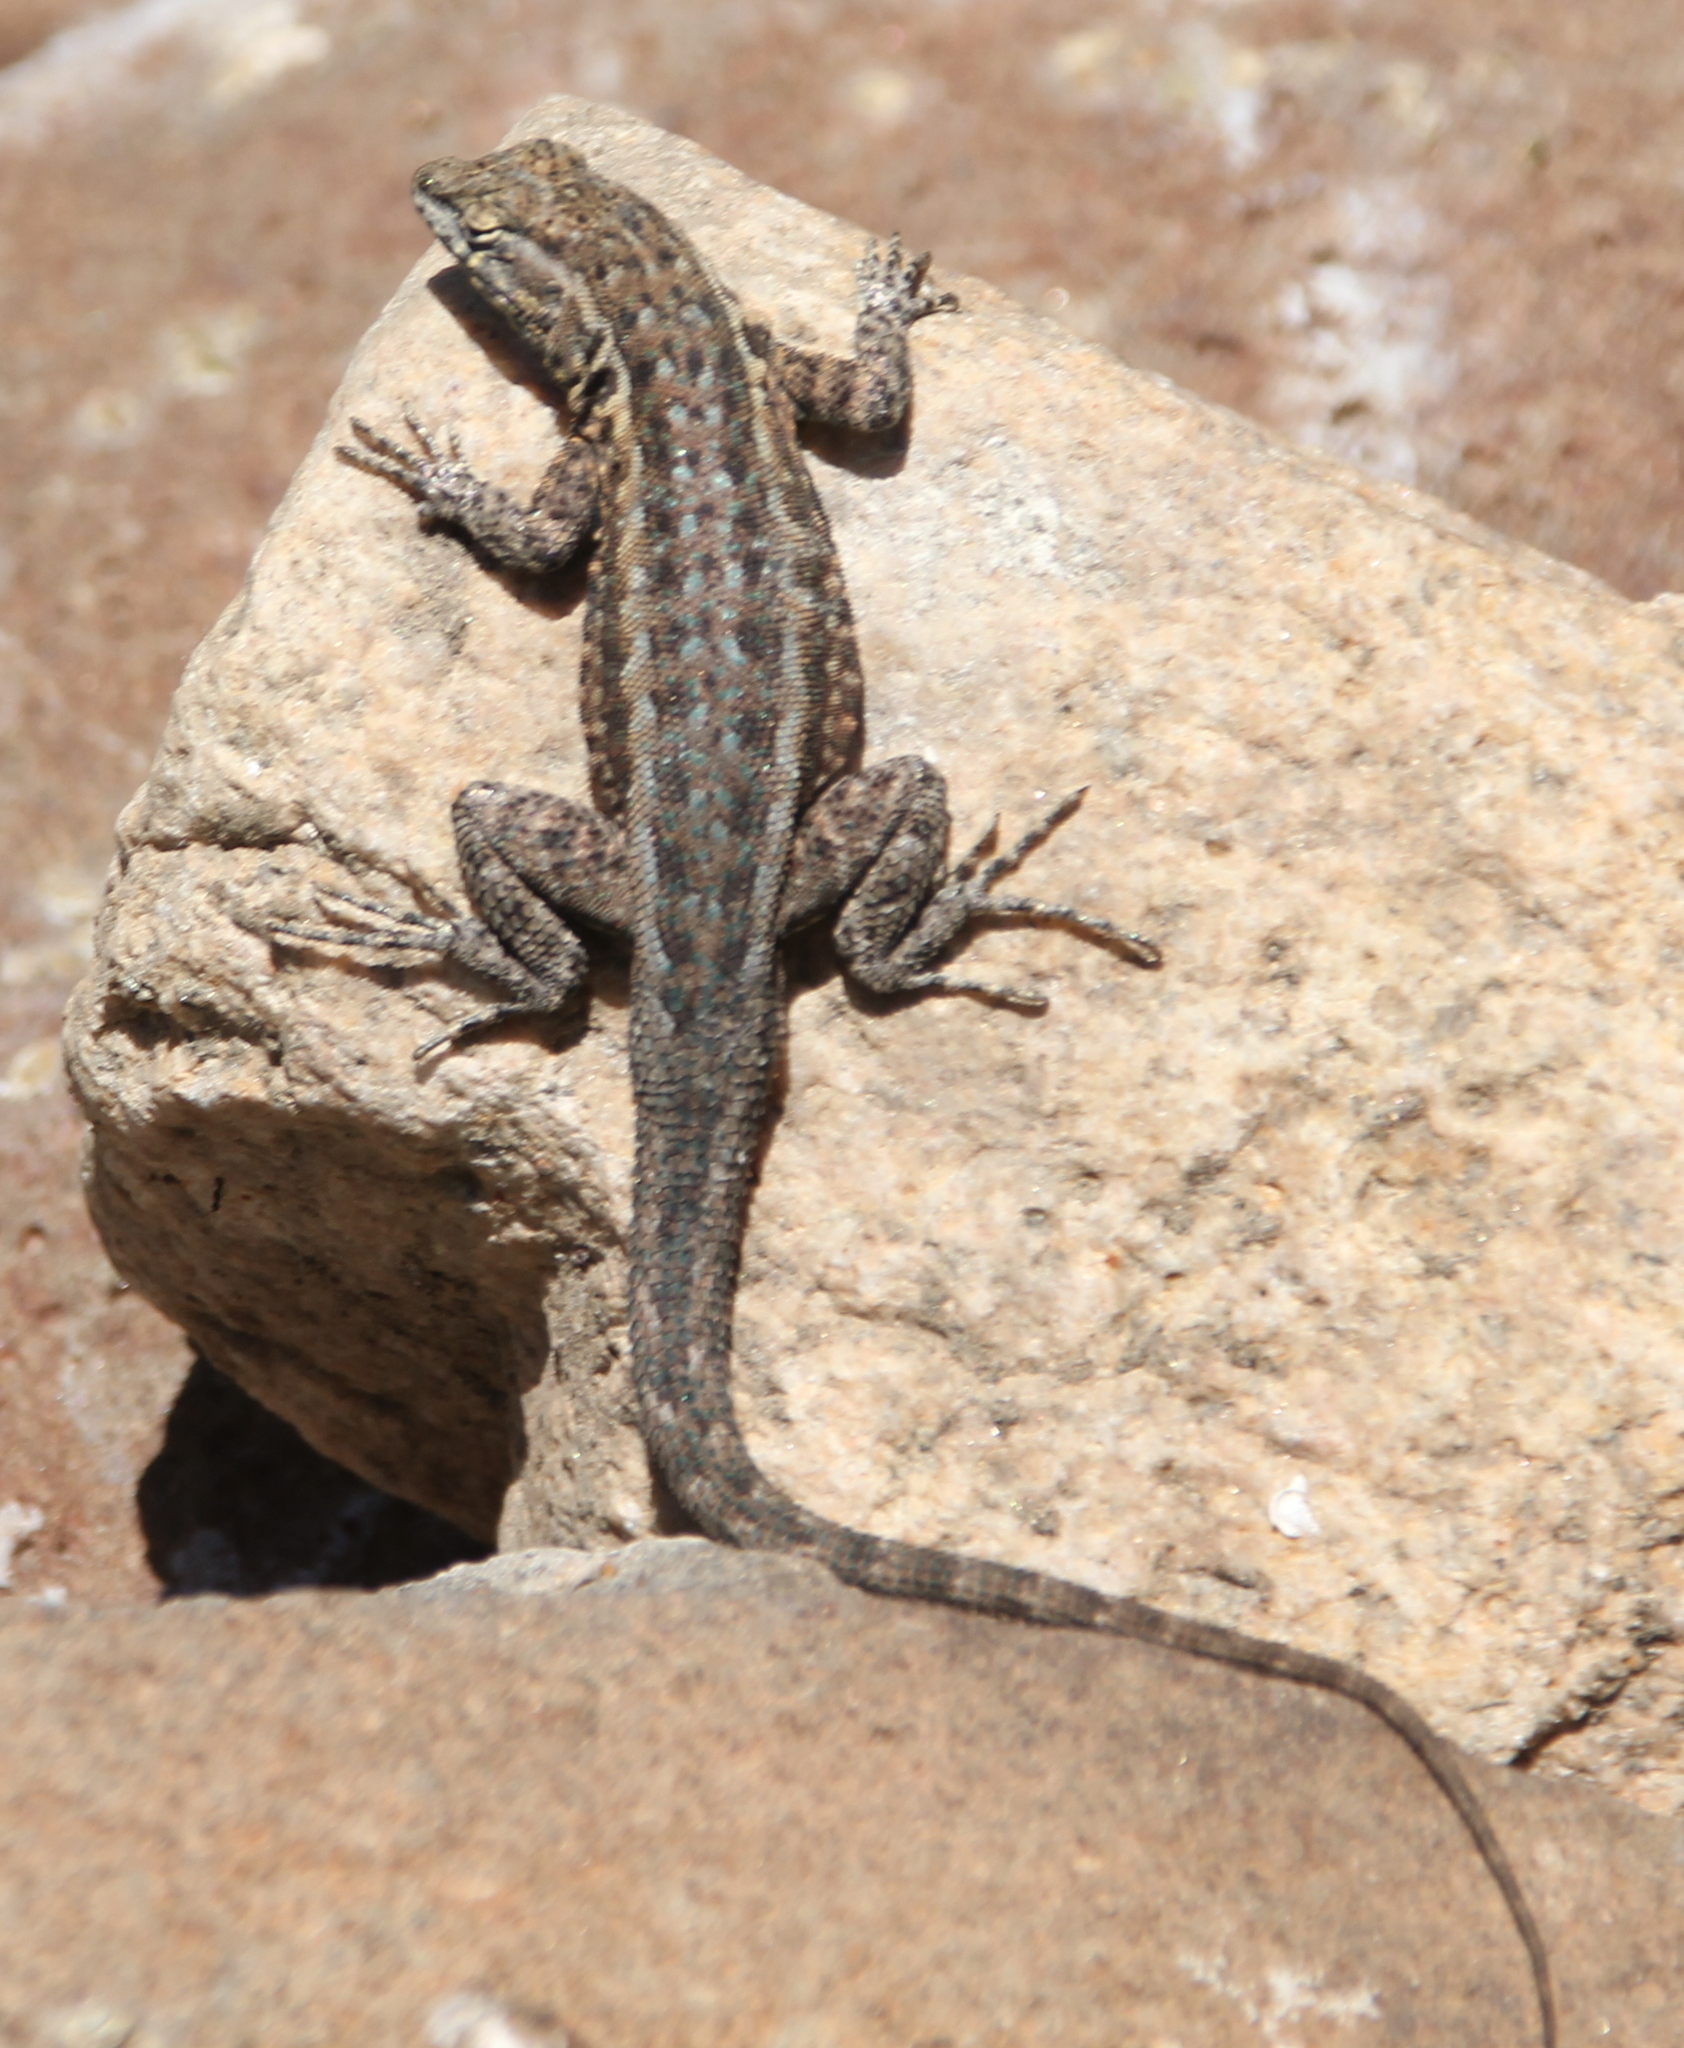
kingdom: Animalia
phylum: Chordata
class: Squamata
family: Phrynosomatidae
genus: Uta
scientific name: Uta stansburiana
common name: Side-blotched lizard
